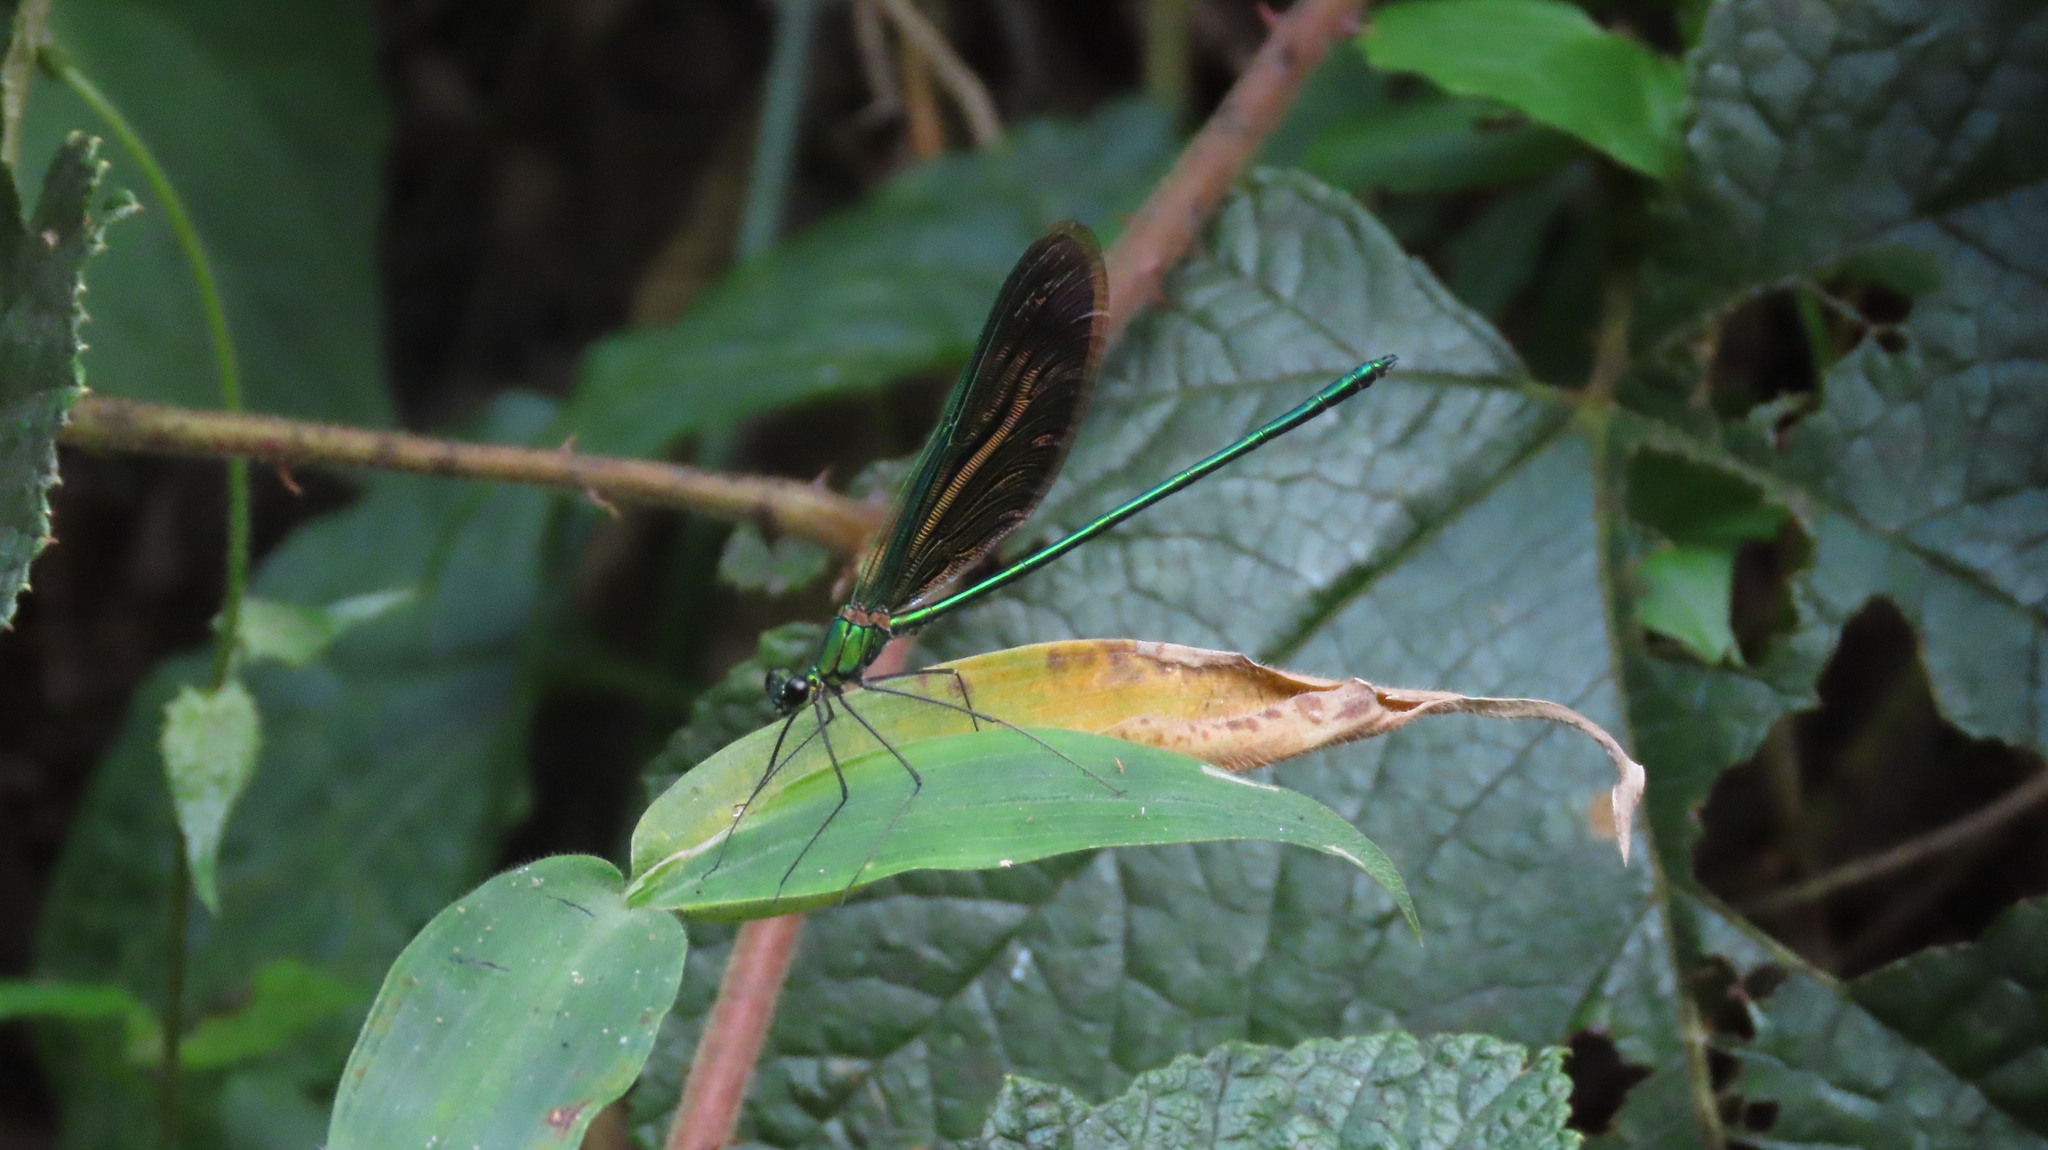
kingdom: Animalia
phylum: Arthropoda
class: Insecta
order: Odonata
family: Calopterygidae
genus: Neurobasis
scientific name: Neurobasis chinensis
